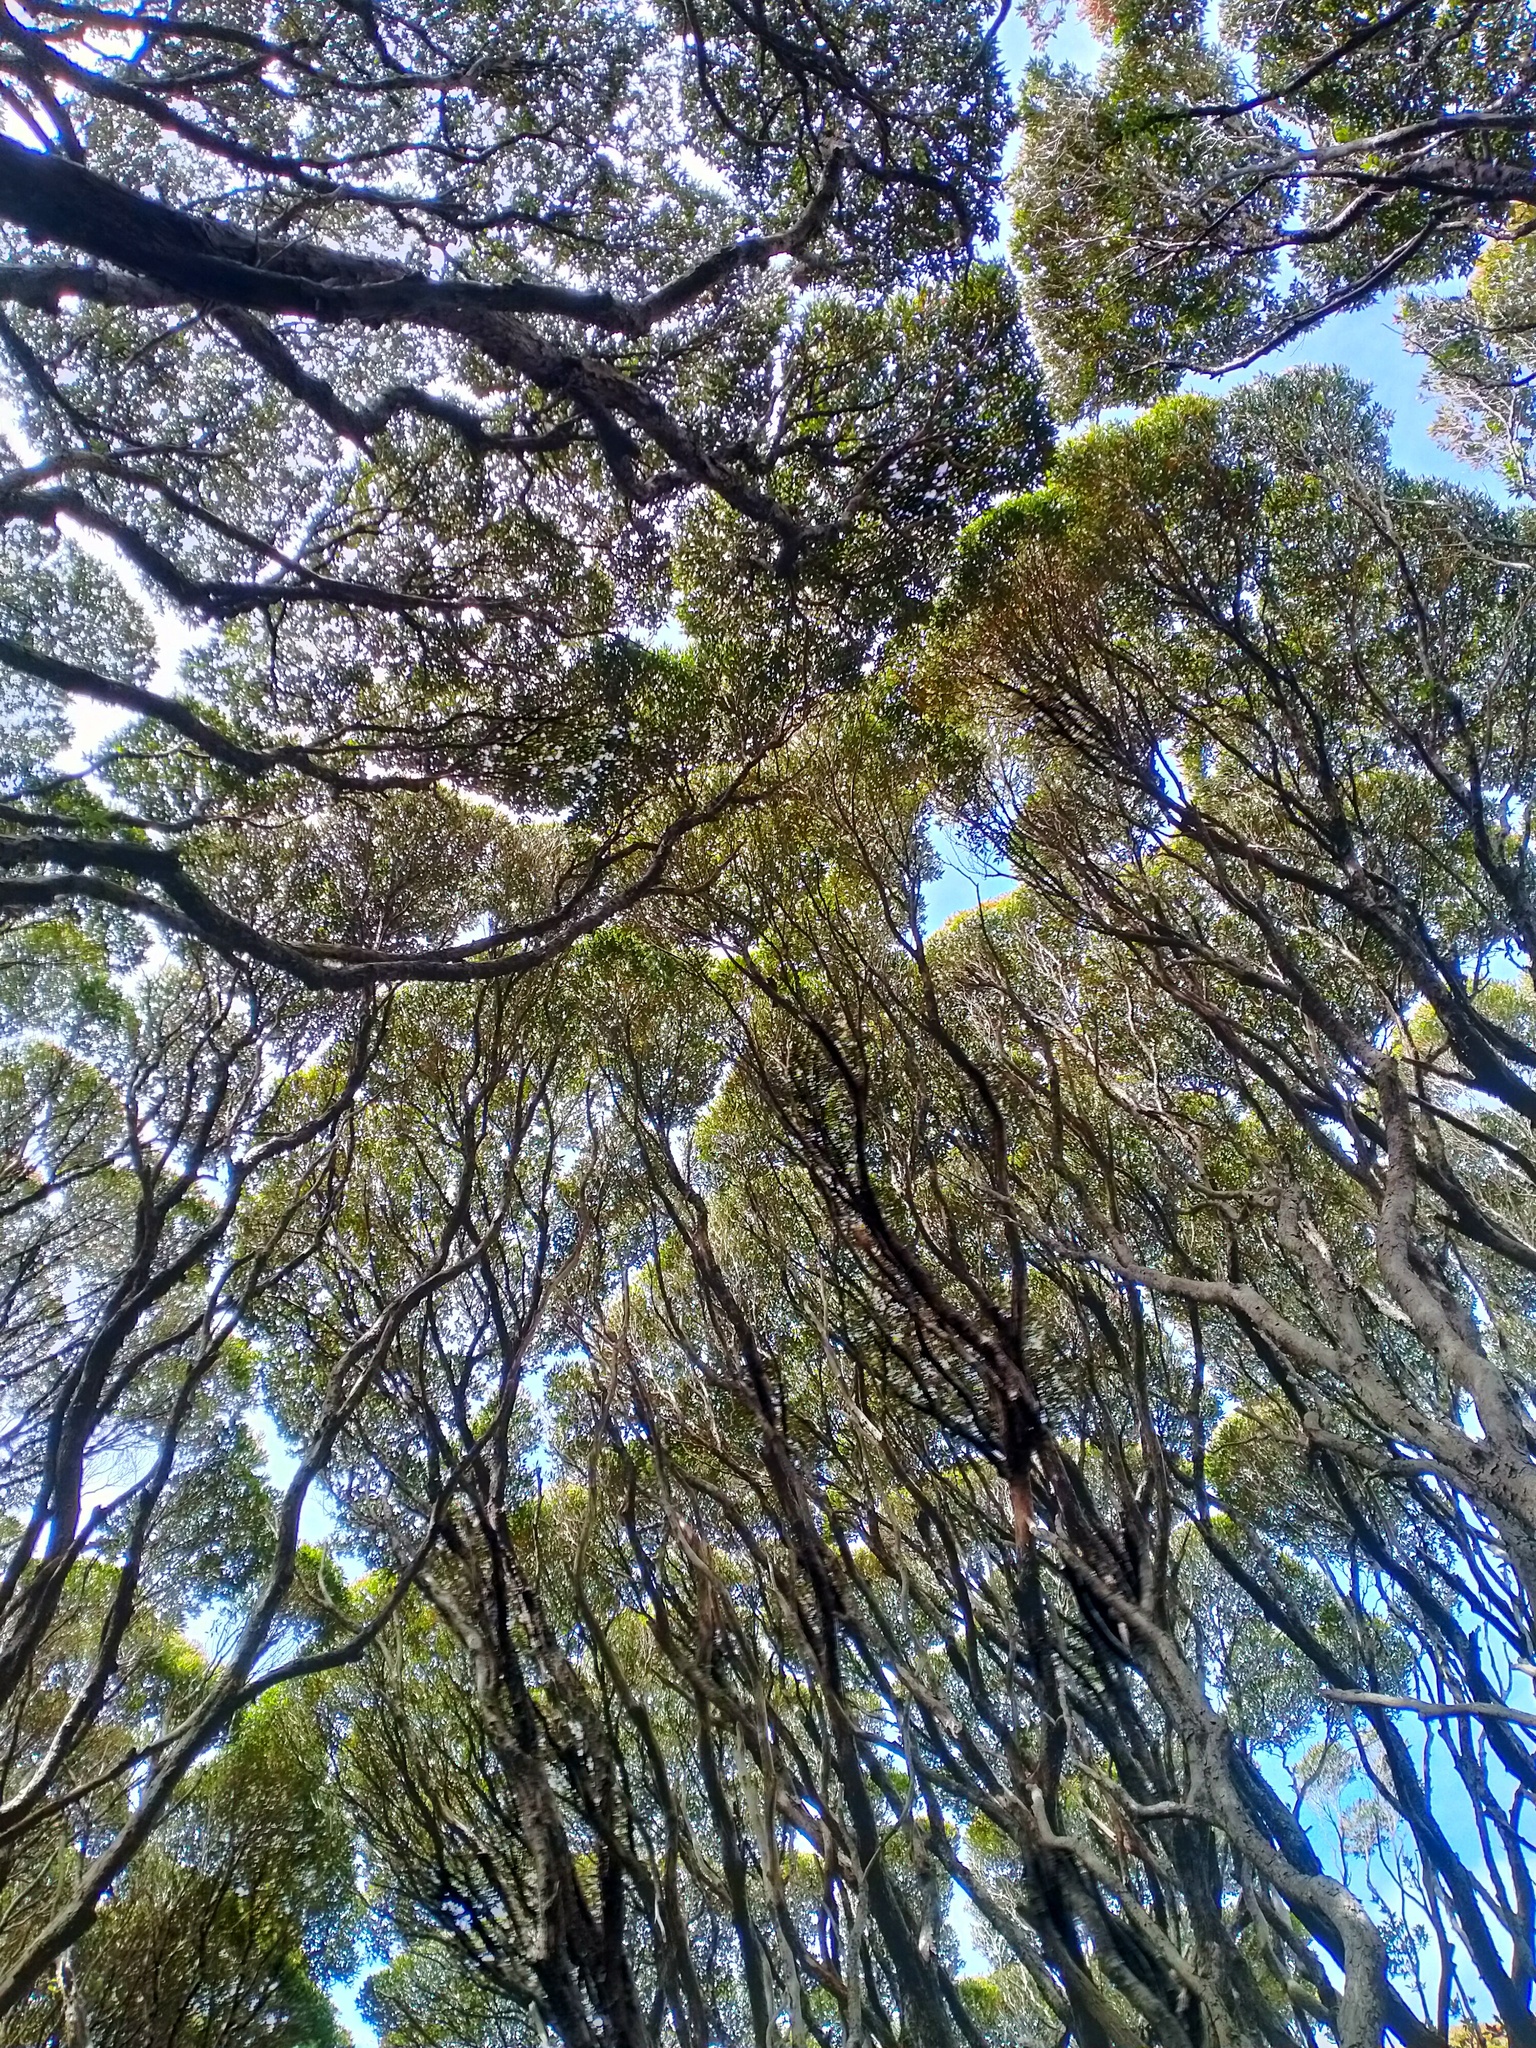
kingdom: Plantae
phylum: Tracheophyta
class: Magnoliopsida
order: Myrtales
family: Myrtaceae
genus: Metrosideros
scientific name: Metrosideros umbellata
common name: Southern rata
